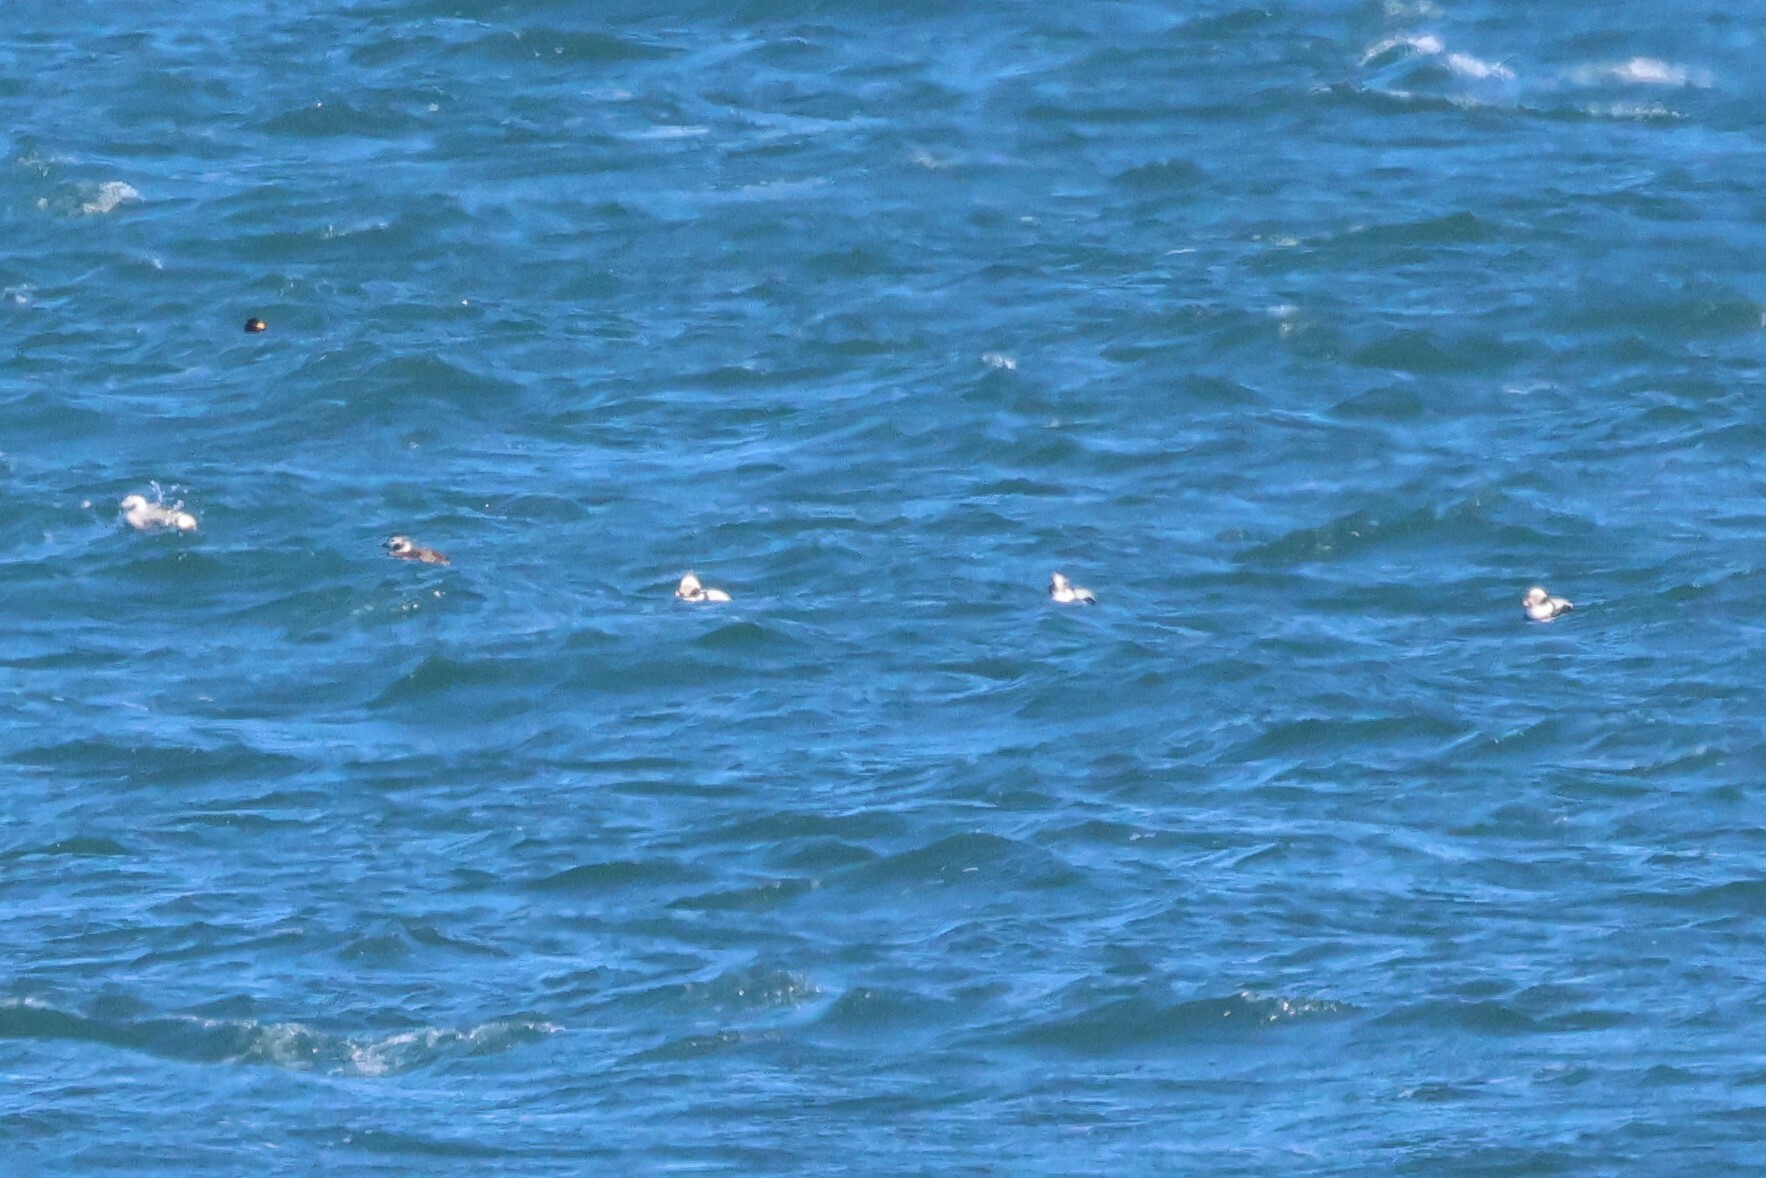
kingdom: Animalia
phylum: Chordata
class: Aves
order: Anseriformes
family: Anatidae
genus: Clangula
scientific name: Clangula hyemalis
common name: Long-tailed duck
